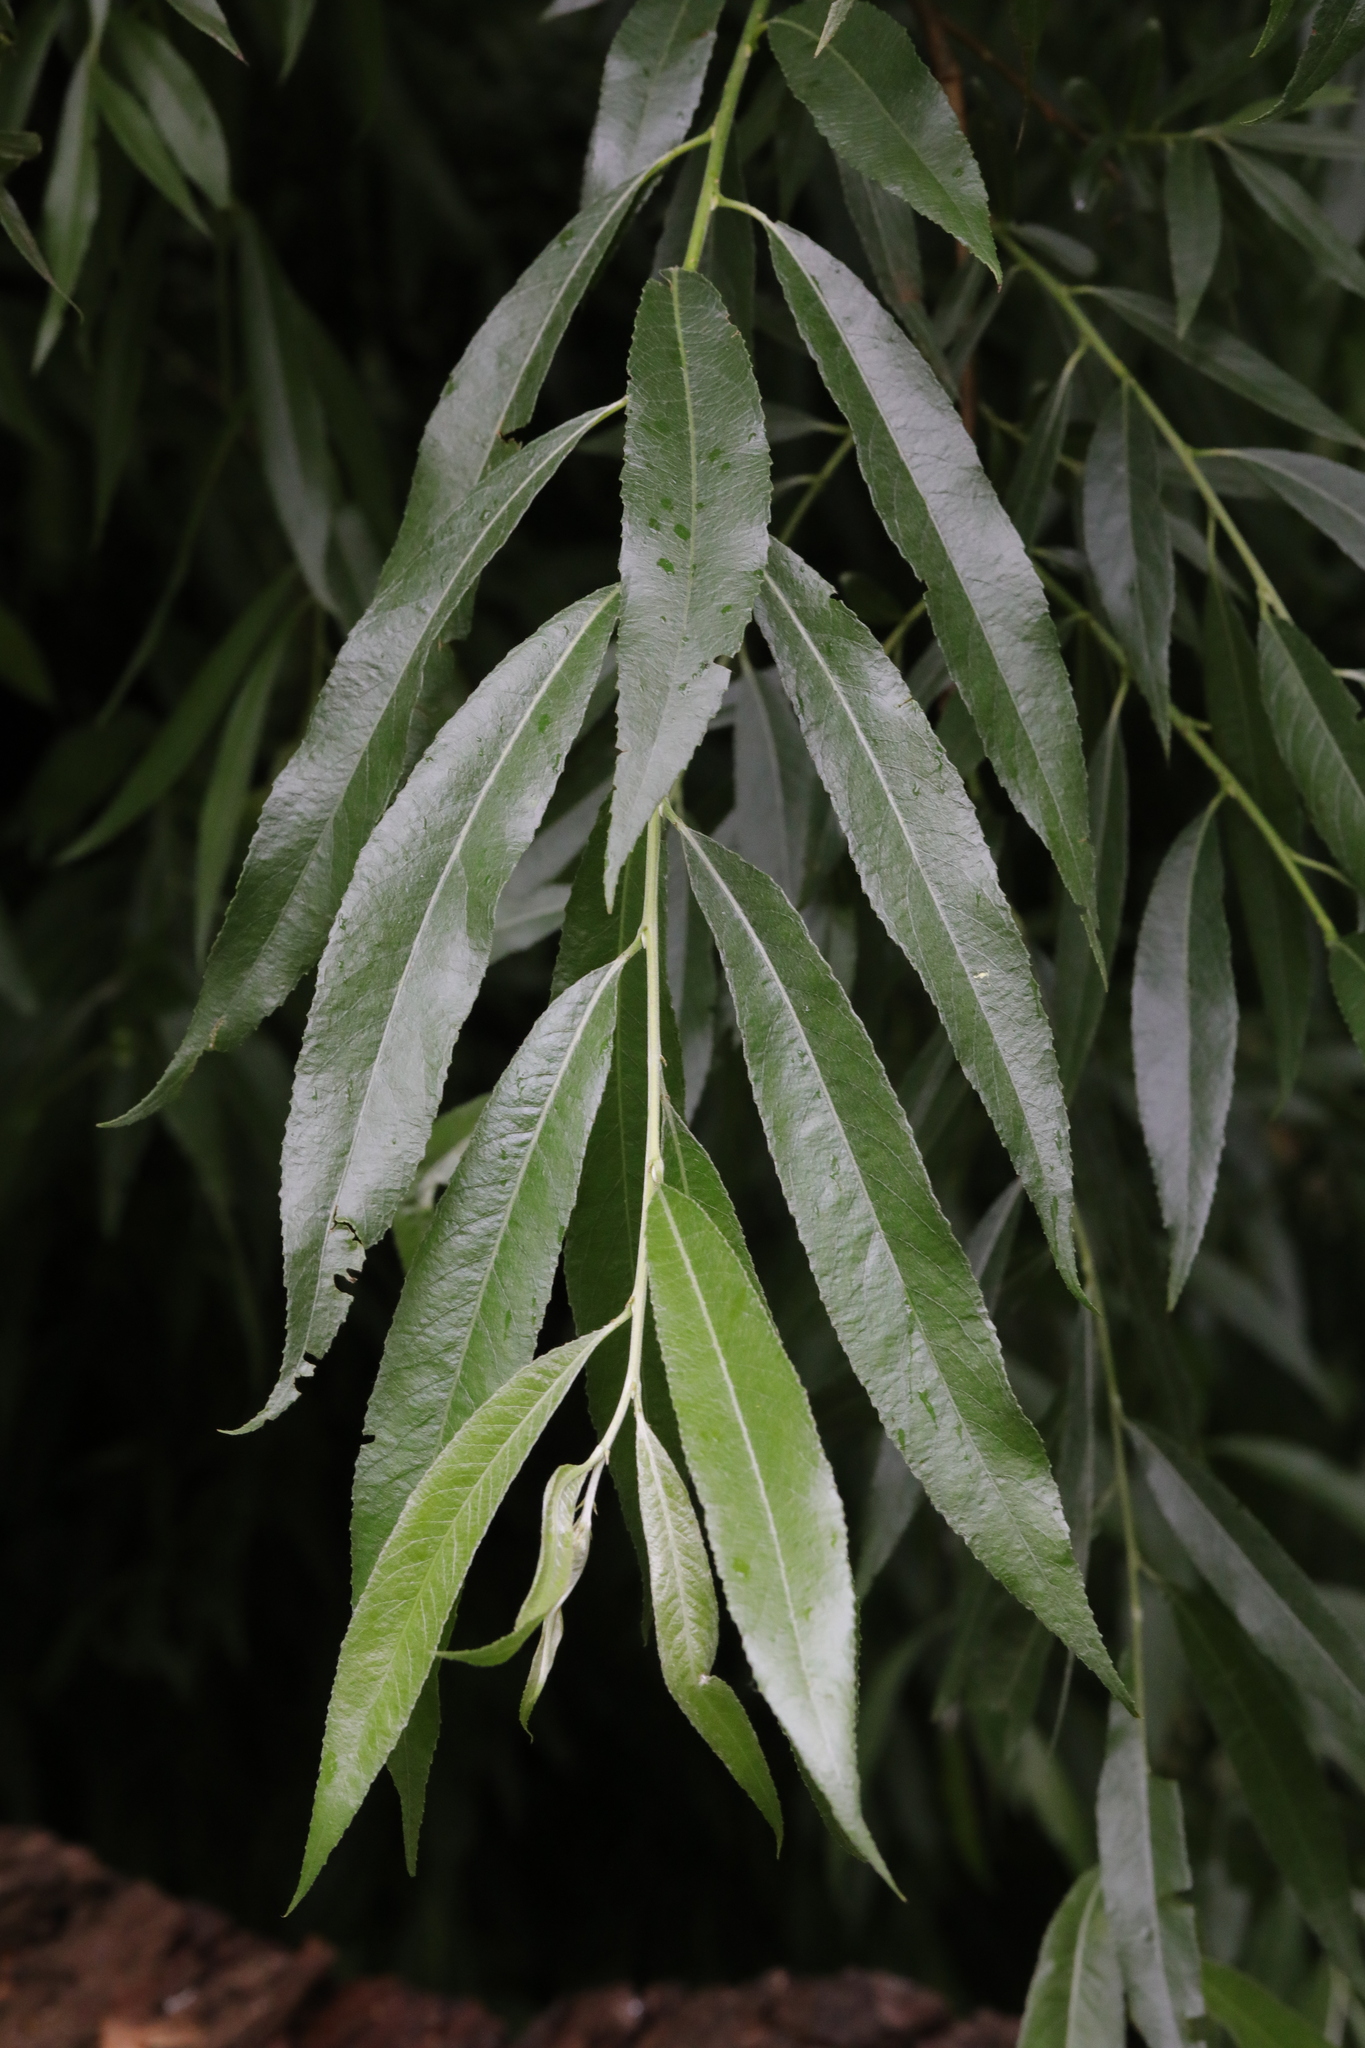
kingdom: Plantae
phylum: Tracheophyta
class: Magnoliopsida
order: Malpighiales
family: Salicaceae
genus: Salix
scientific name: Salix alba
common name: White willow
